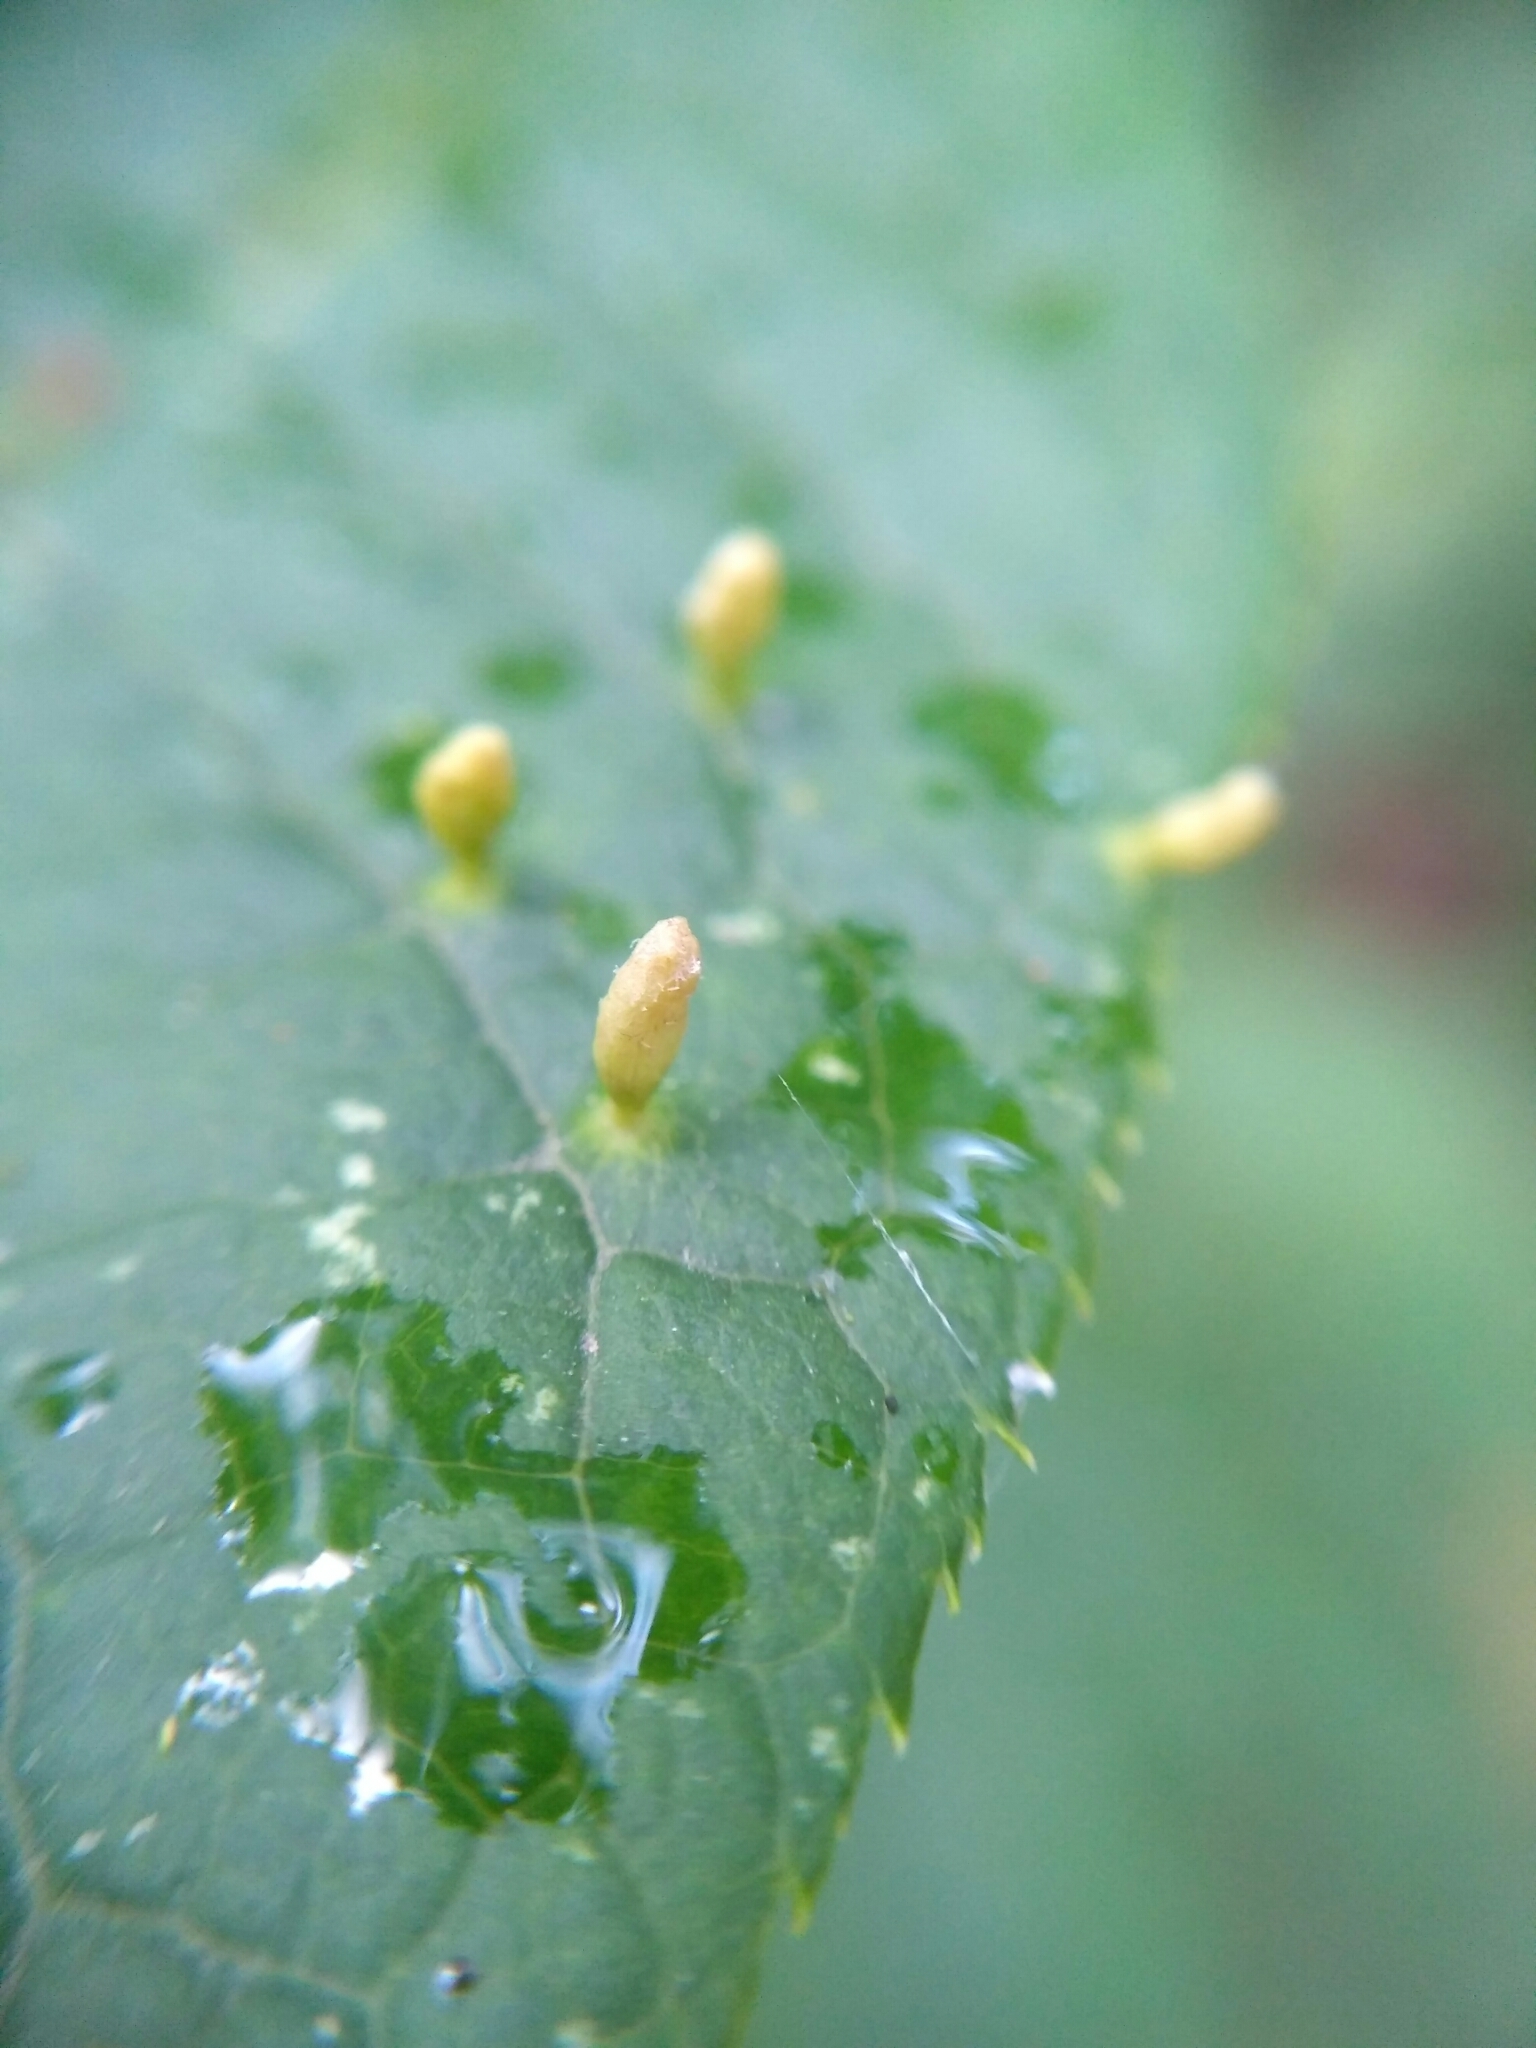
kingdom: Animalia
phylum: Arthropoda
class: Arachnida
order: Trombidiformes
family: Eriophyidae
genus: Phyllocoptes
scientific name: Phyllocoptes eupadi
